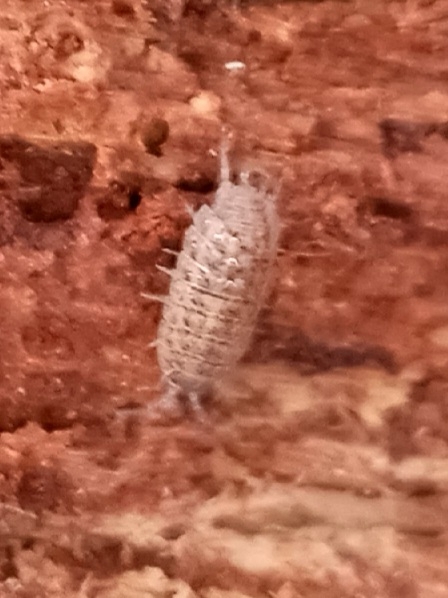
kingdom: Animalia
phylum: Arthropoda
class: Malacostraca
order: Isopoda
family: Trachelipodidae
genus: Trachelipus
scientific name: Trachelipus rathkii
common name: Isopod
